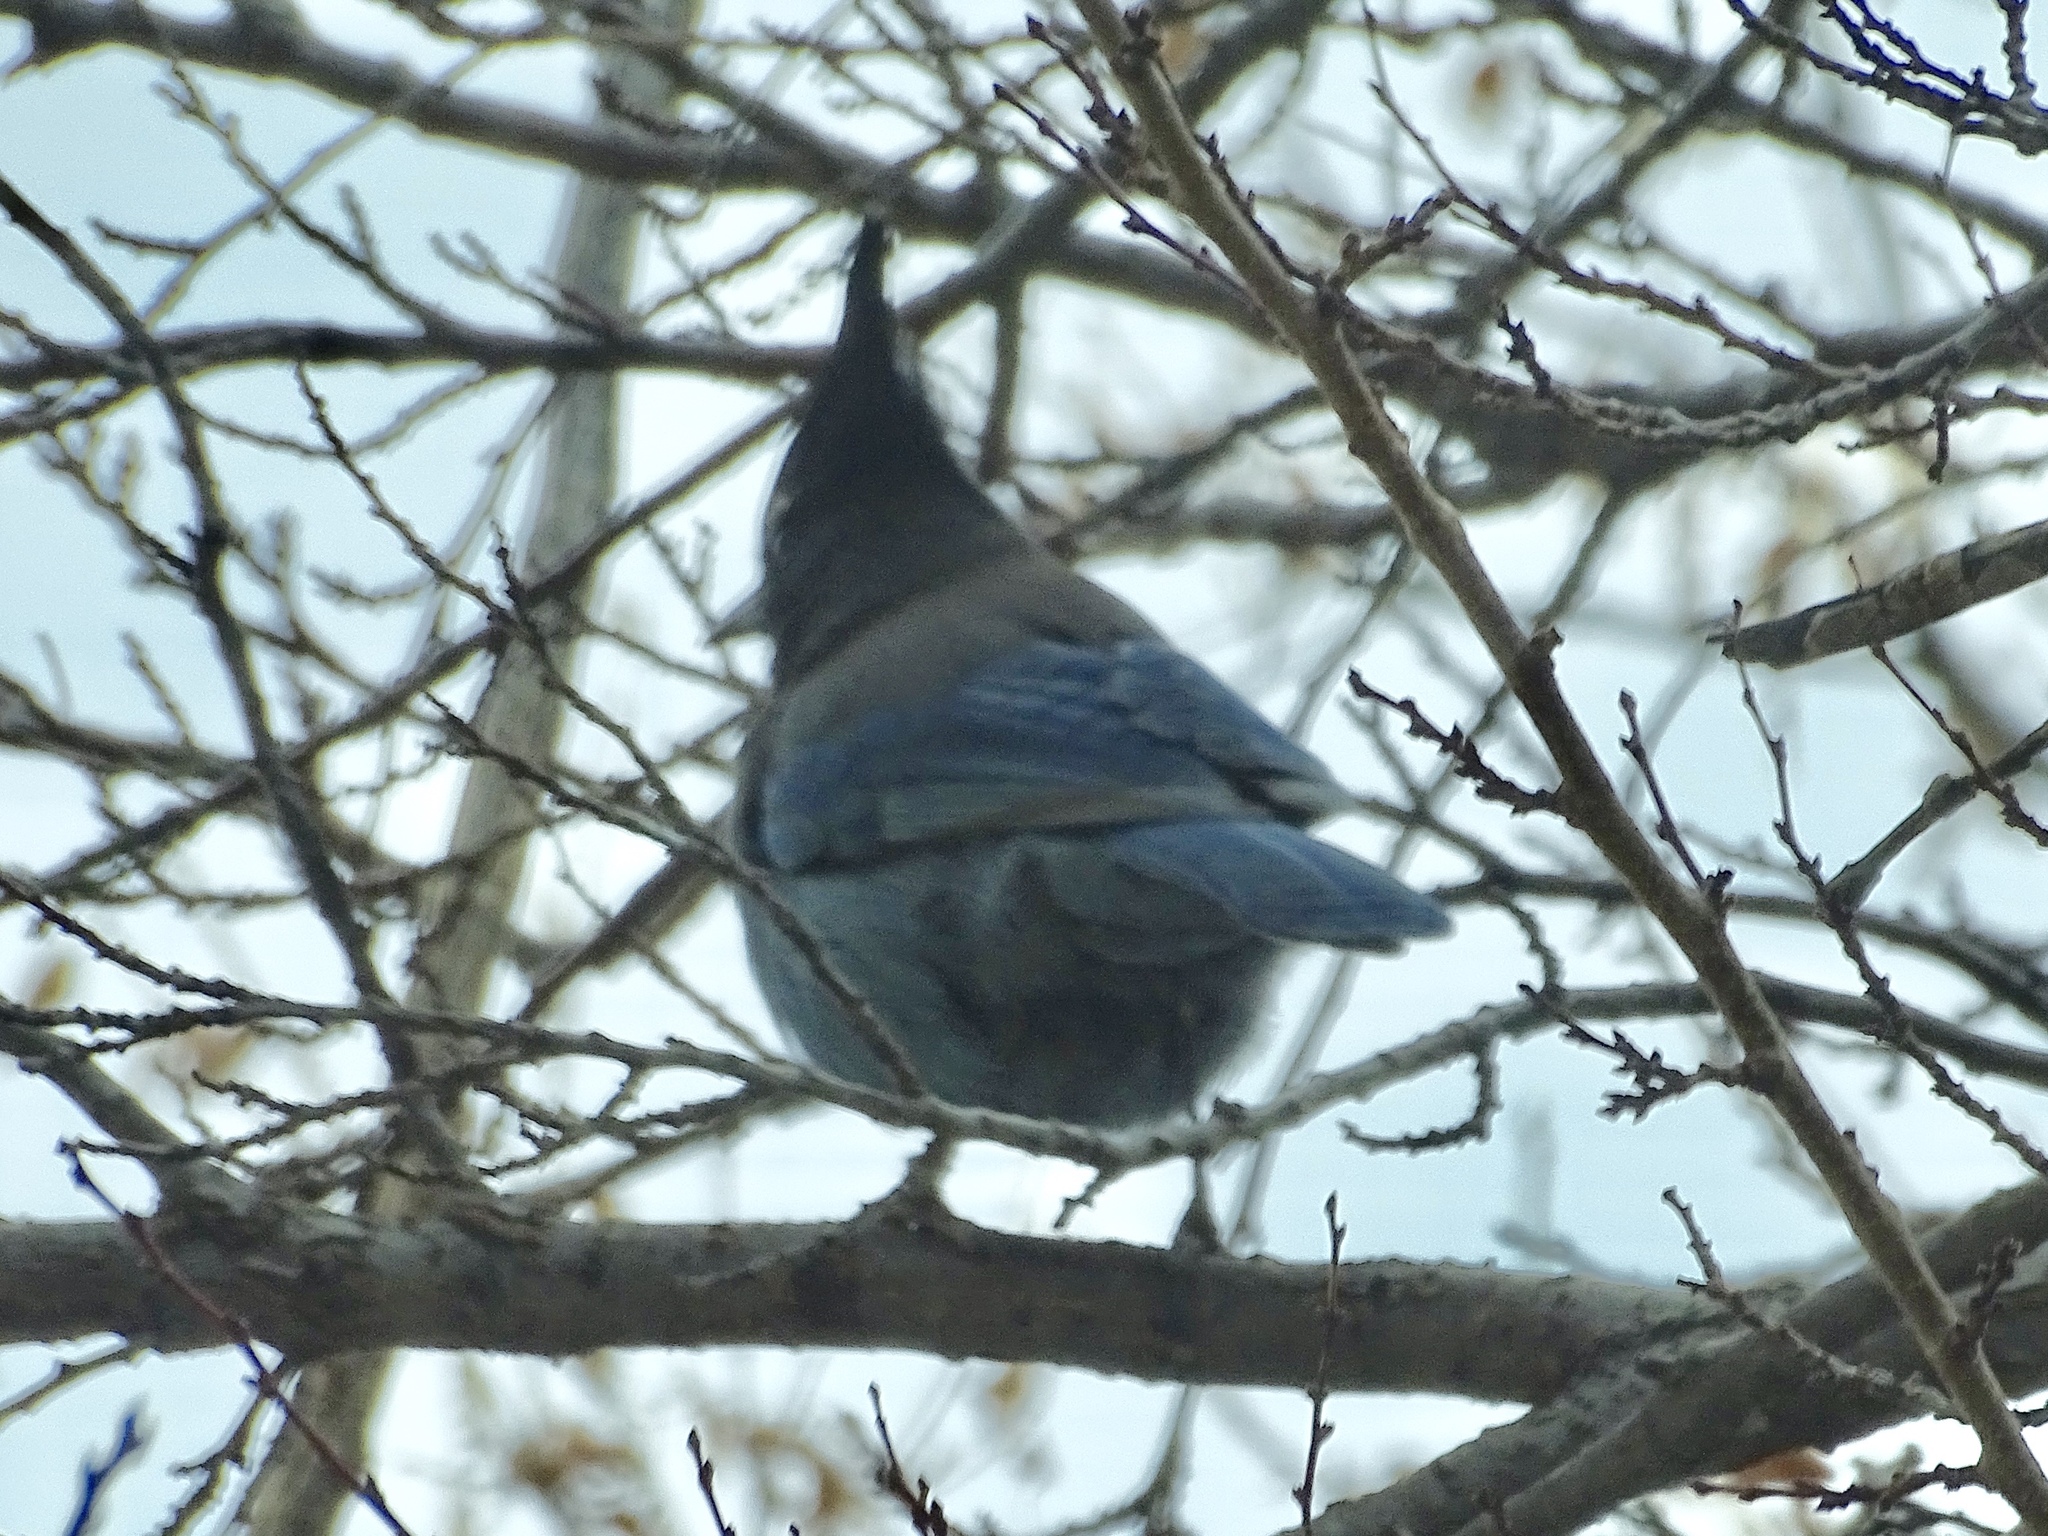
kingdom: Animalia
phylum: Chordata
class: Aves
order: Passeriformes
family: Corvidae
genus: Cyanocitta
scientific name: Cyanocitta stelleri
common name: Steller's jay
